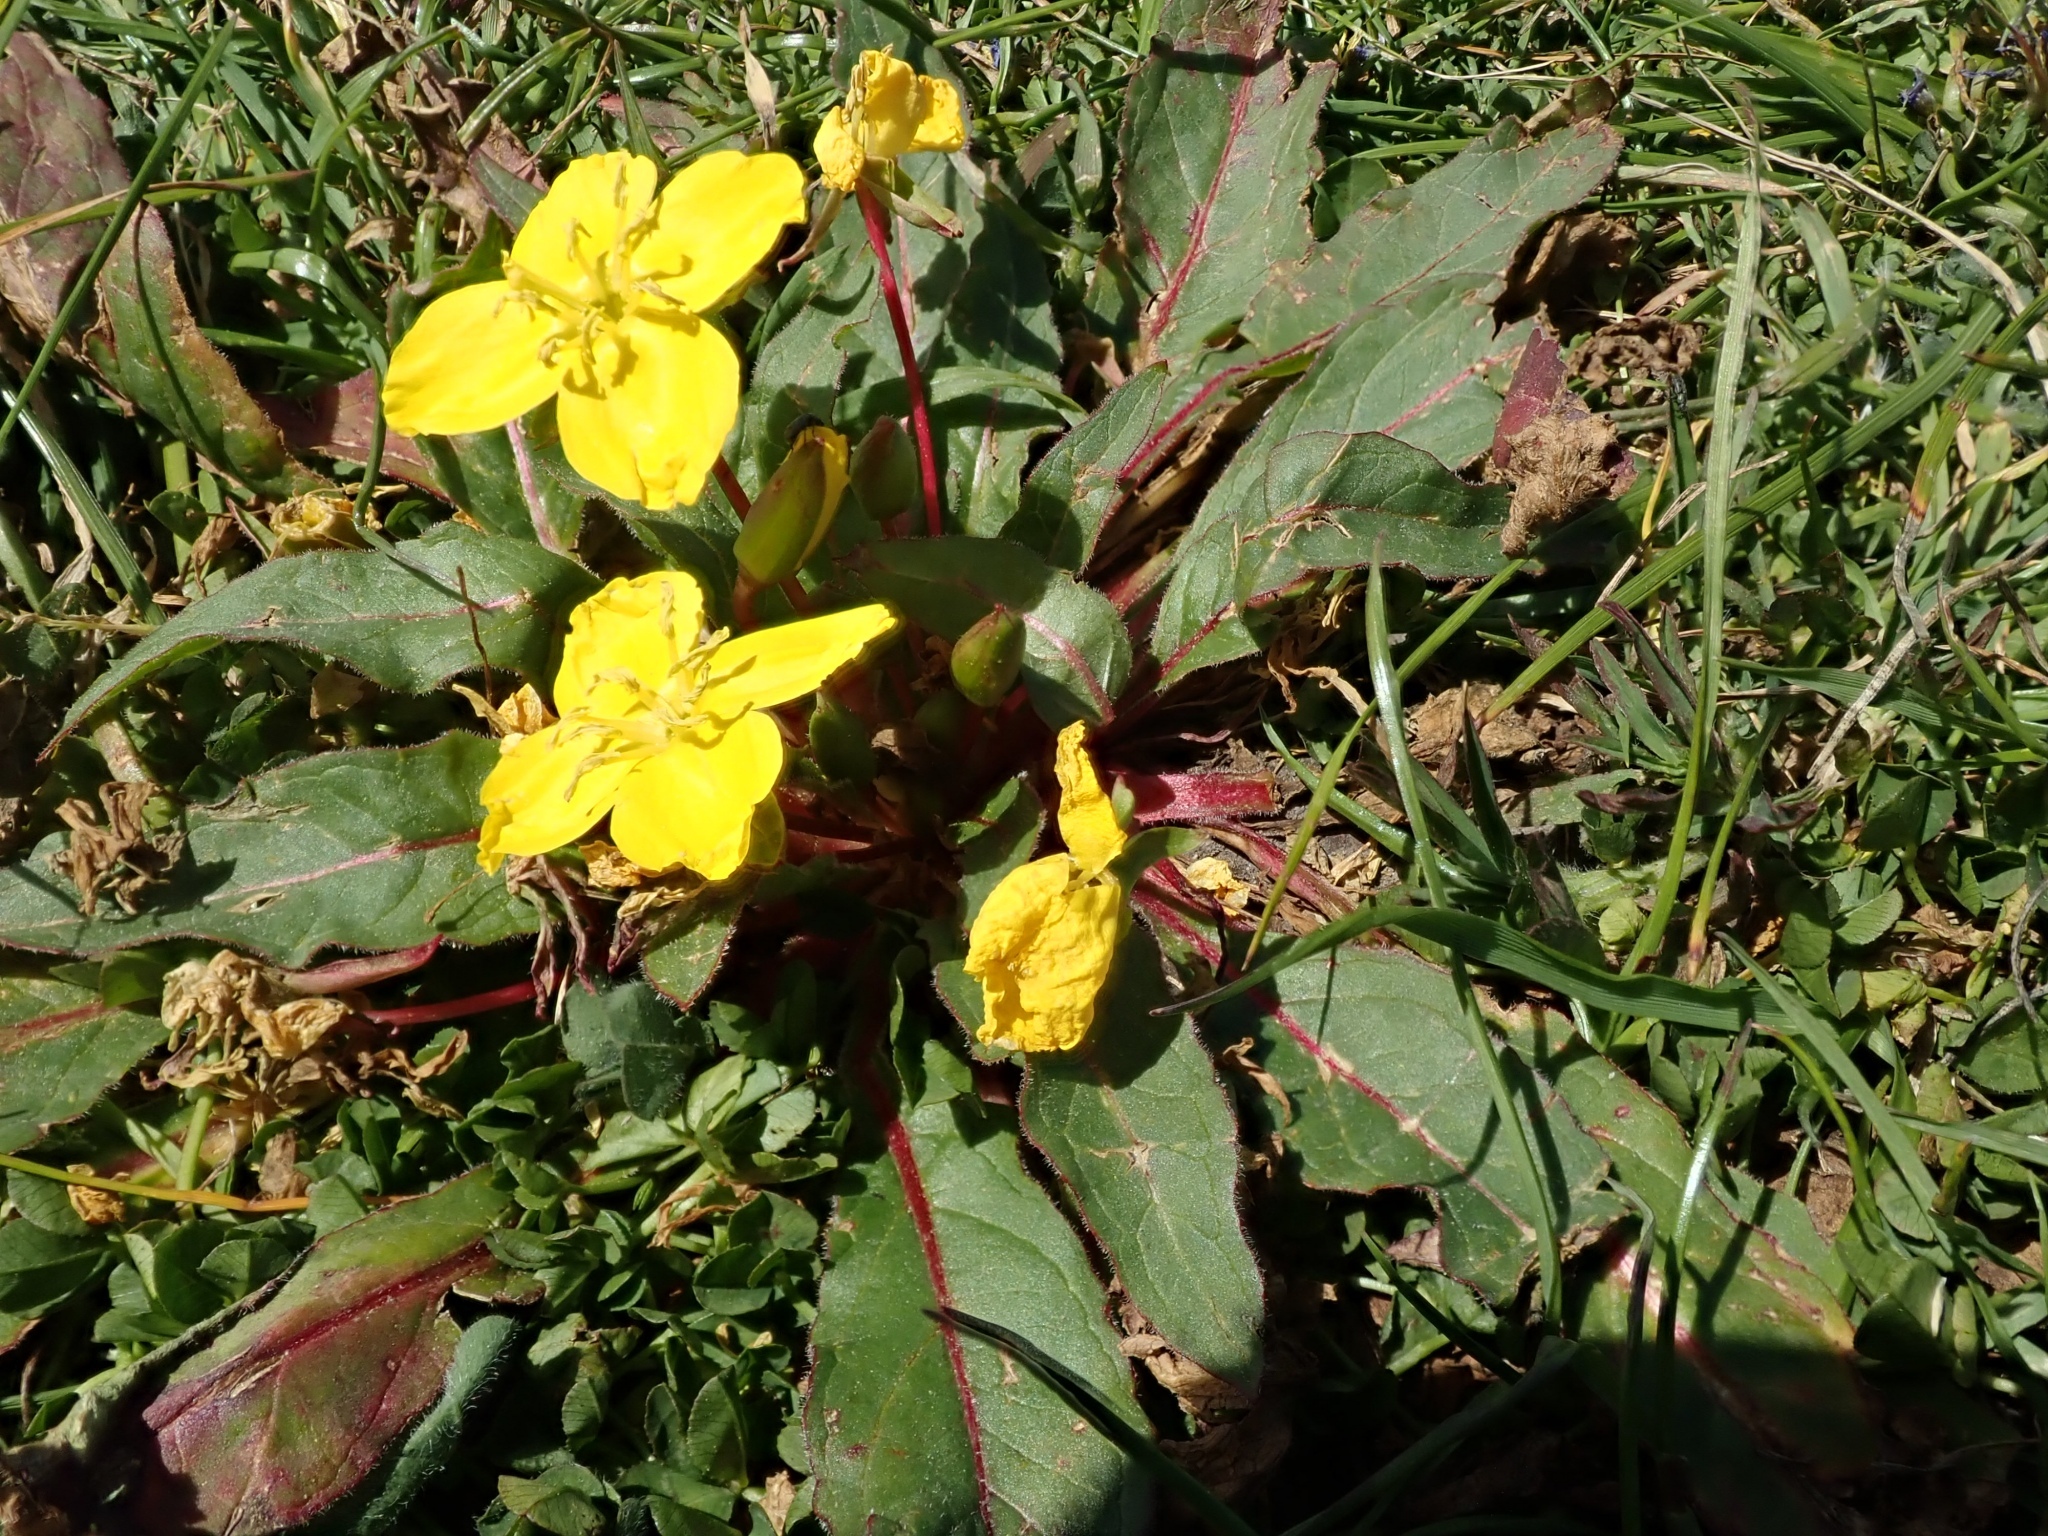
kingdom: Plantae
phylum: Tracheophyta
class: Magnoliopsida
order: Myrtales
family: Onagraceae
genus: Taraxia
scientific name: Taraxia ovata
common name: Goldeneggs
